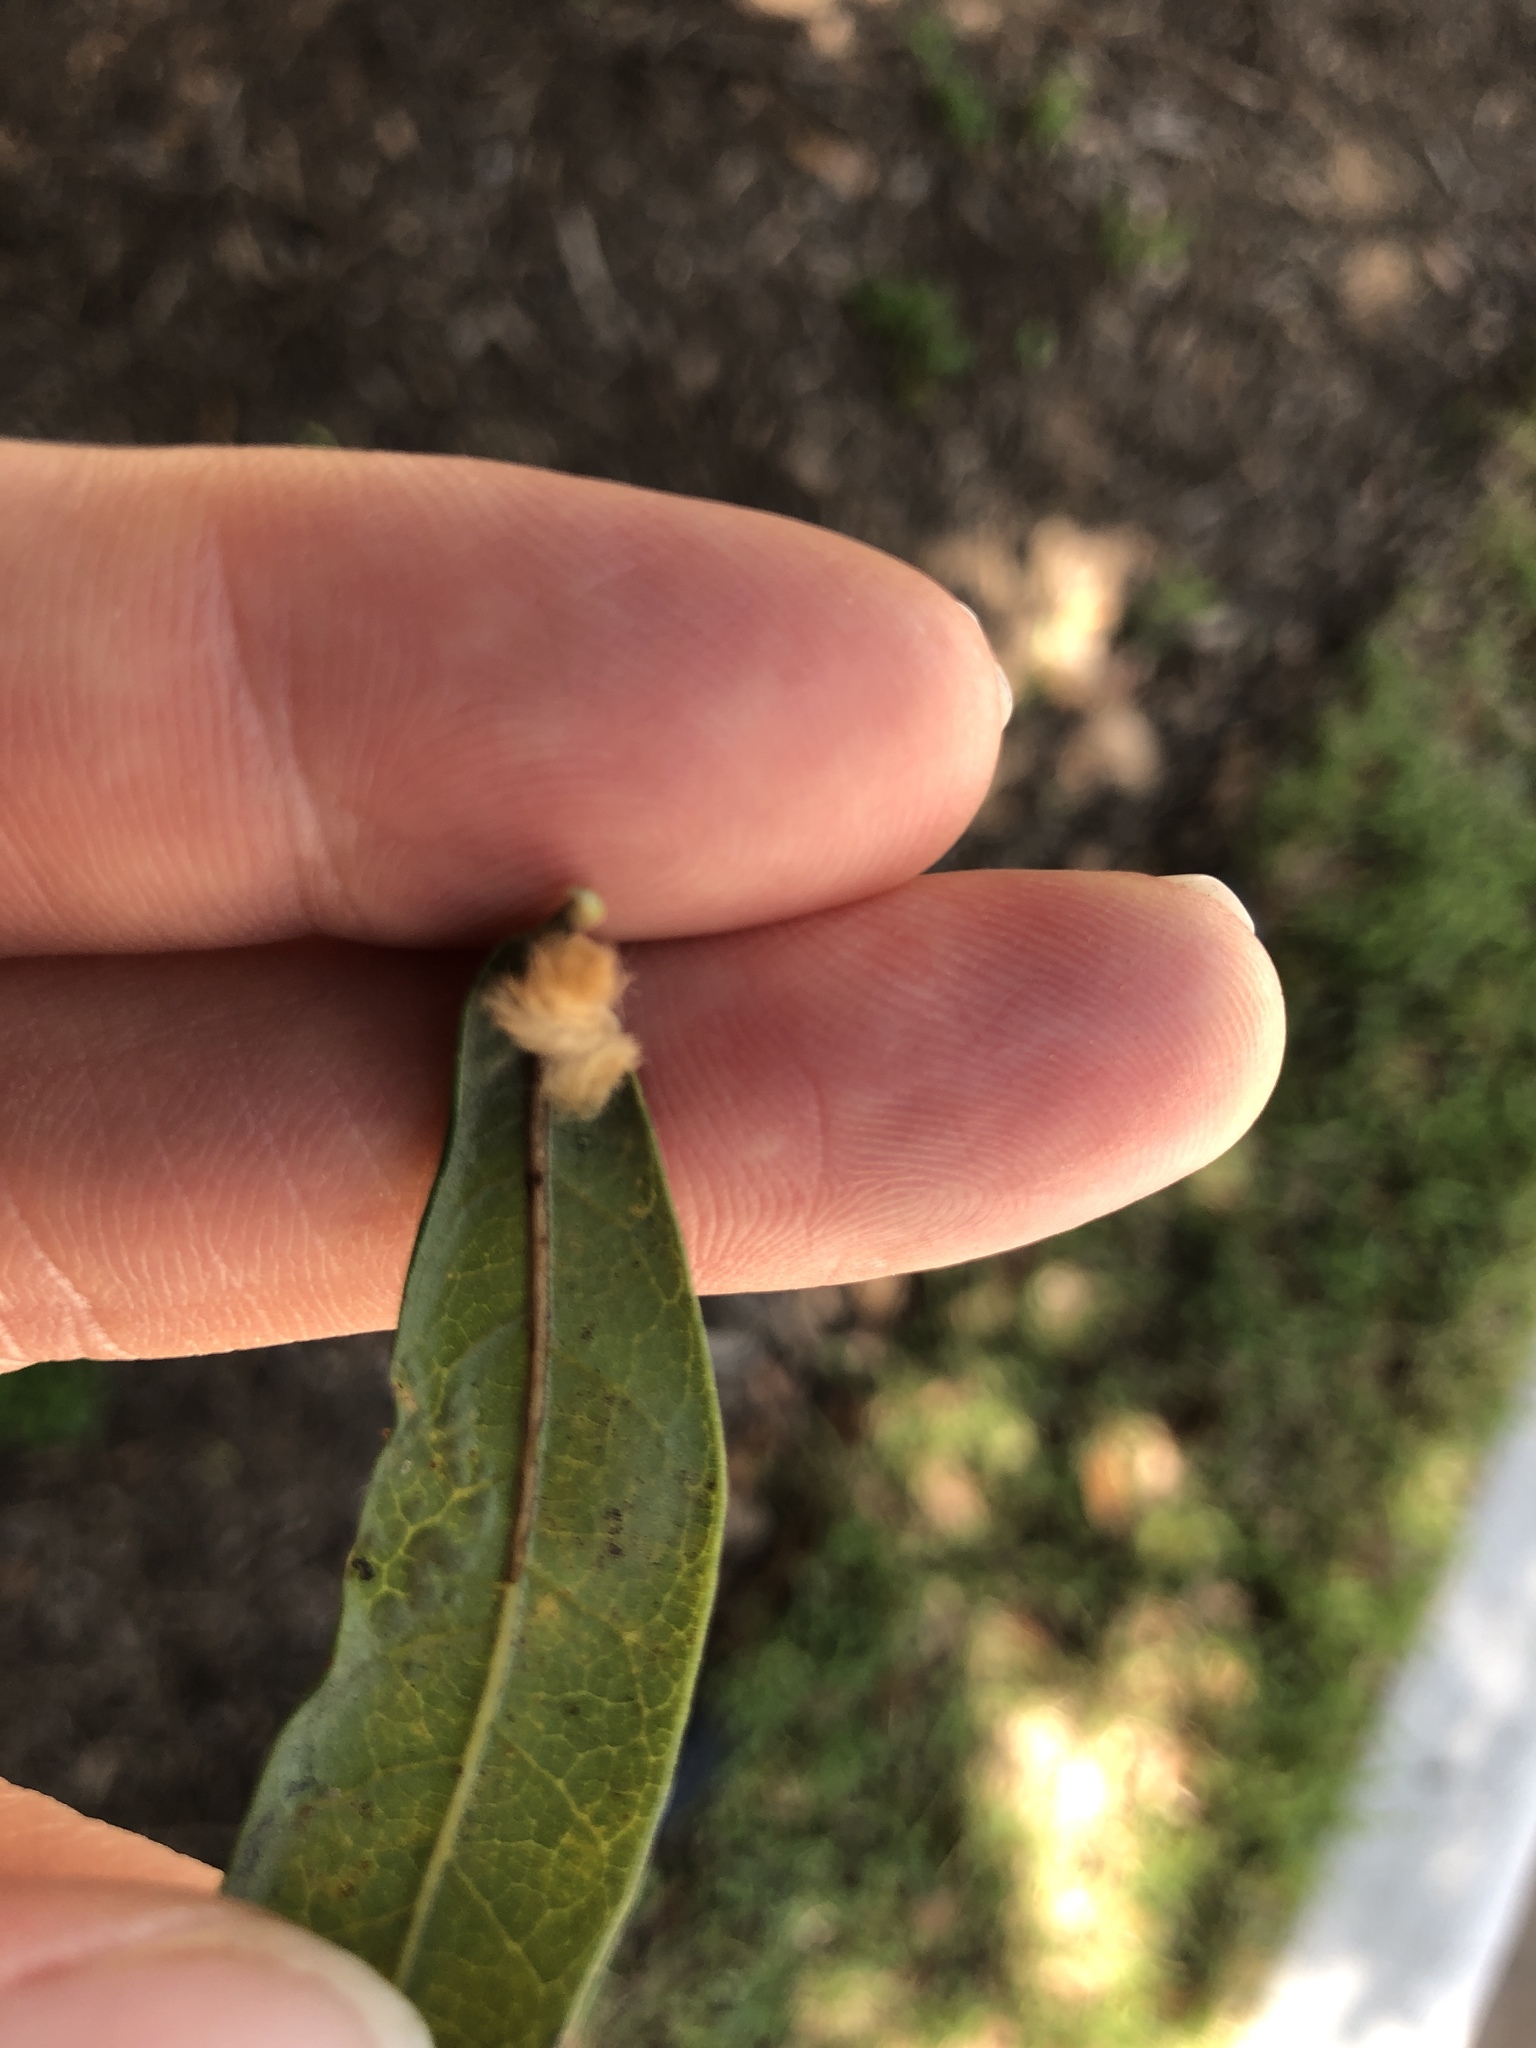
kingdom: Animalia
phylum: Arthropoda
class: Insecta
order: Hymenoptera
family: Cynipidae
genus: Andricus
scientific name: Andricus Druon quercuslanigerum
